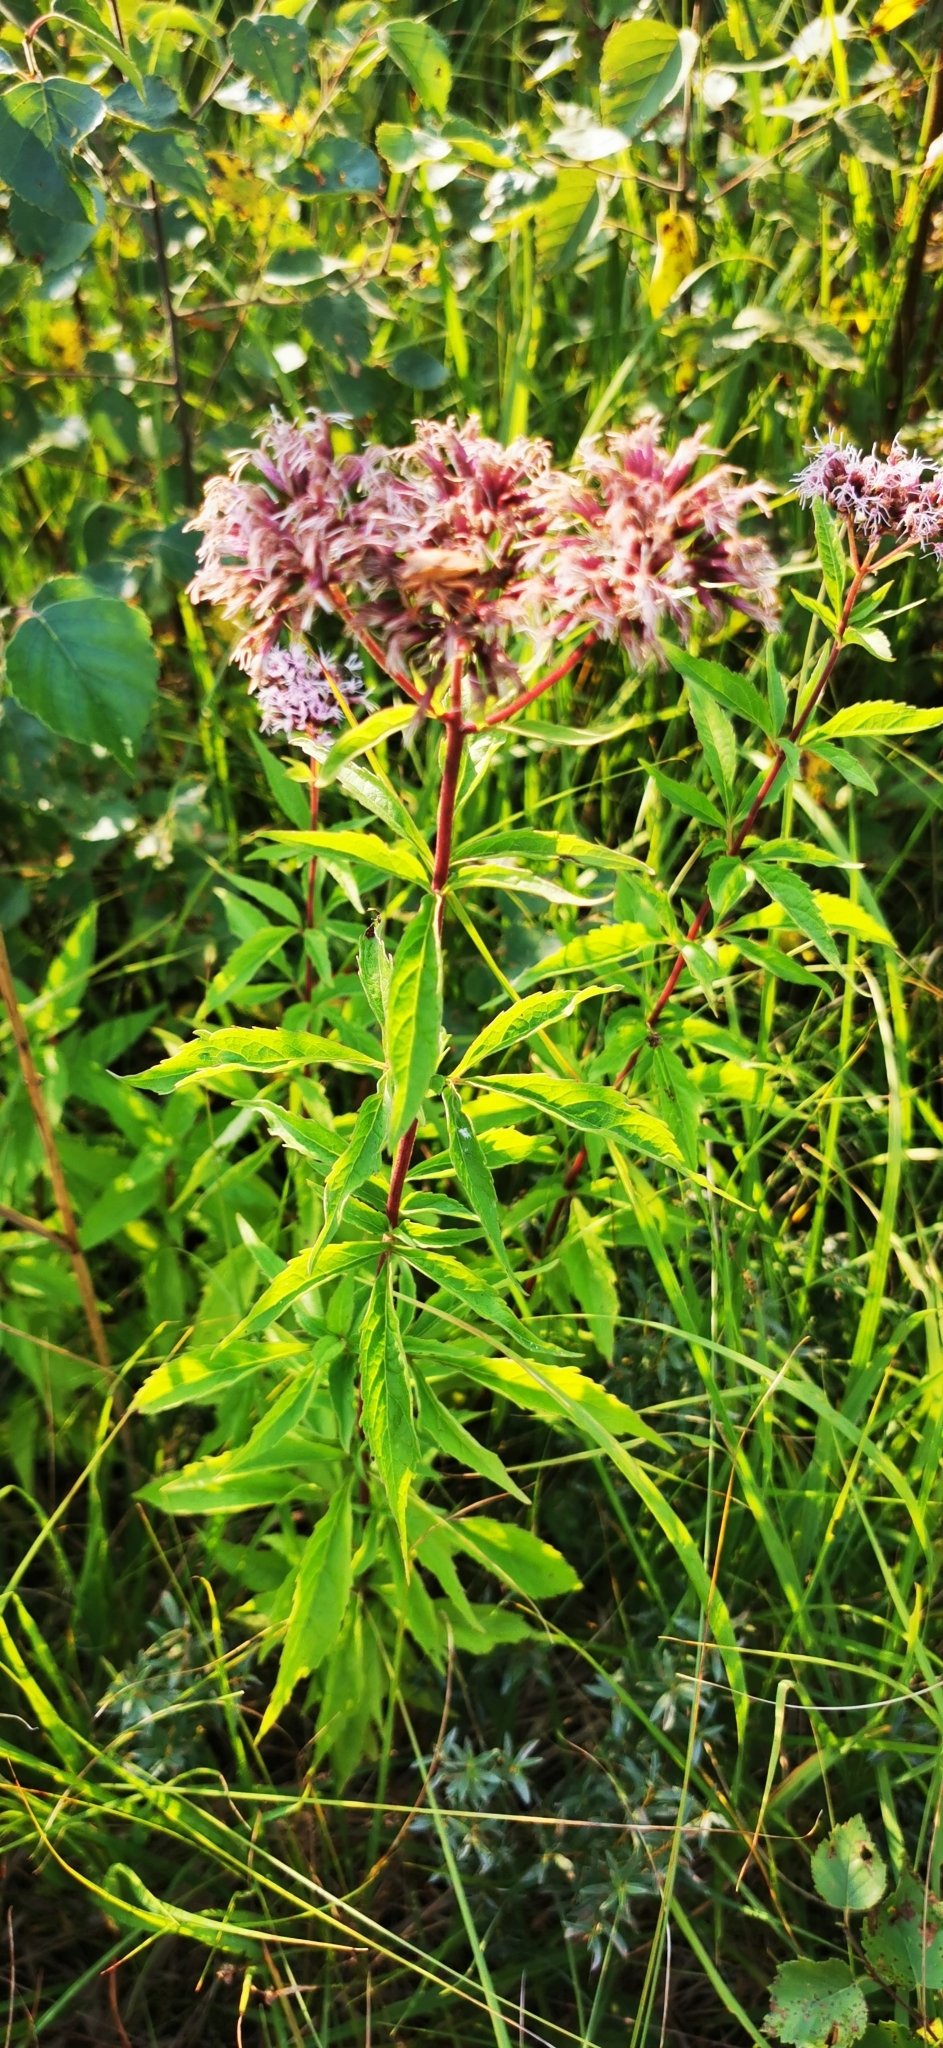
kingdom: Plantae
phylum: Tracheophyta
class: Magnoliopsida
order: Asterales
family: Asteraceae
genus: Eupatorium
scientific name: Eupatorium cannabinum
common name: Hemp-agrimony
